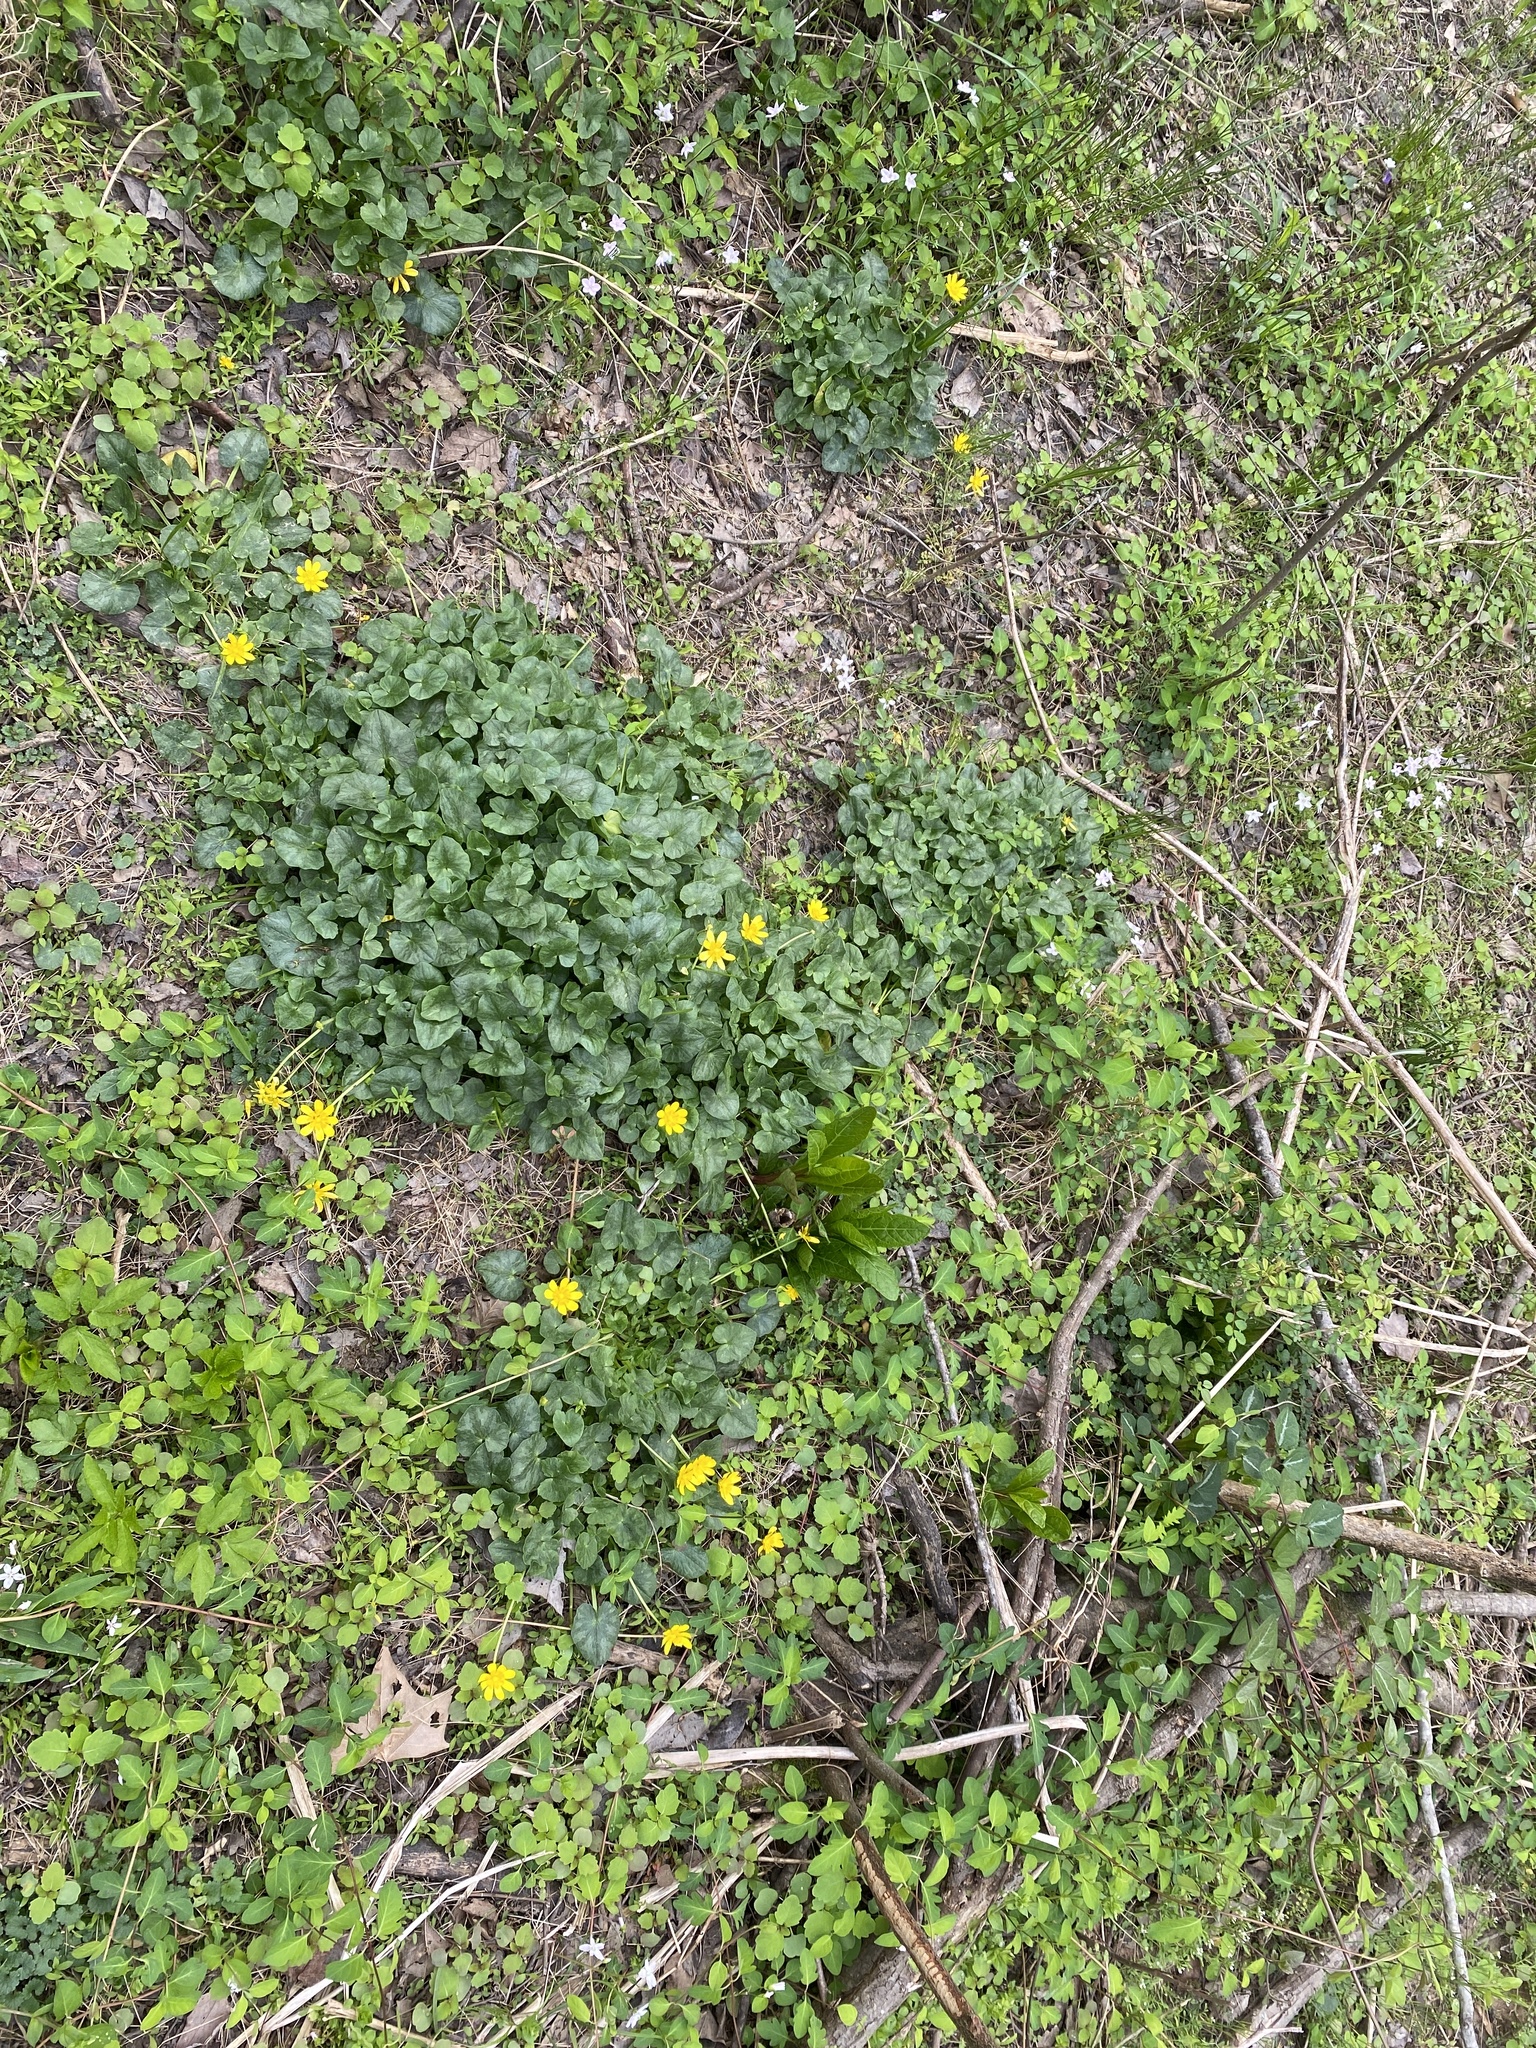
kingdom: Plantae
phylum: Tracheophyta
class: Magnoliopsida
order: Ranunculales
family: Ranunculaceae
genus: Ficaria
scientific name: Ficaria verna
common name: Lesser celandine
